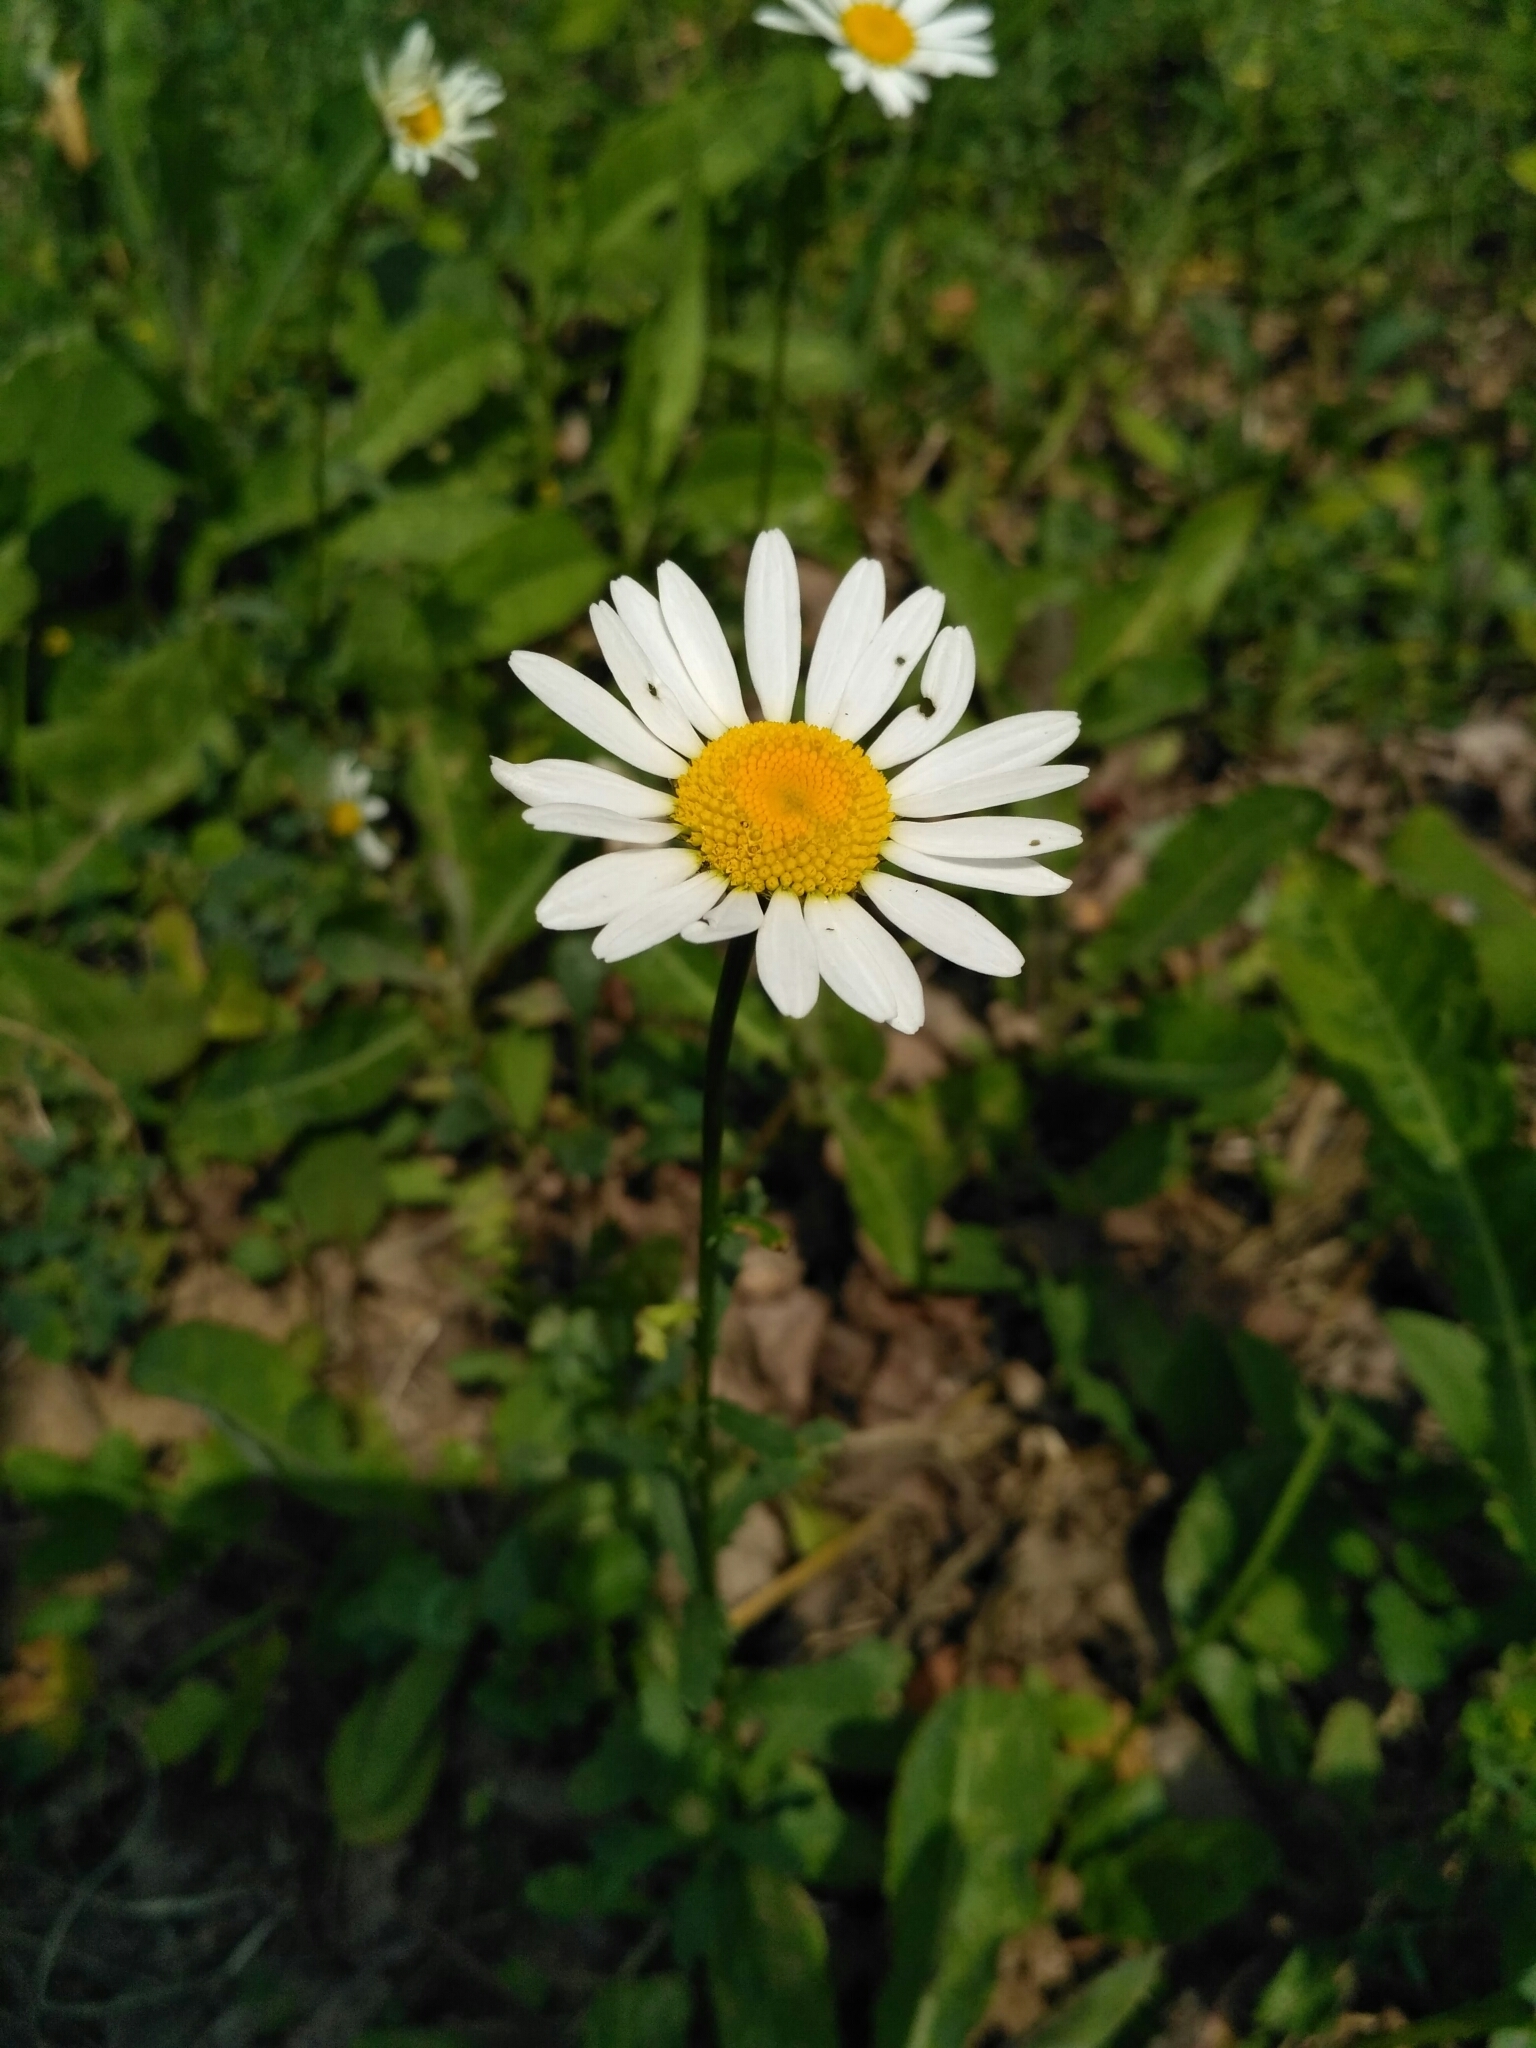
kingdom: Plantae
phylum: Tracheophyta
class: Magnoliopsida
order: Asterales
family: Asteraceae
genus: Leucanthemum
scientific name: Leucanthemum vulgare
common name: Oxeye daisy
